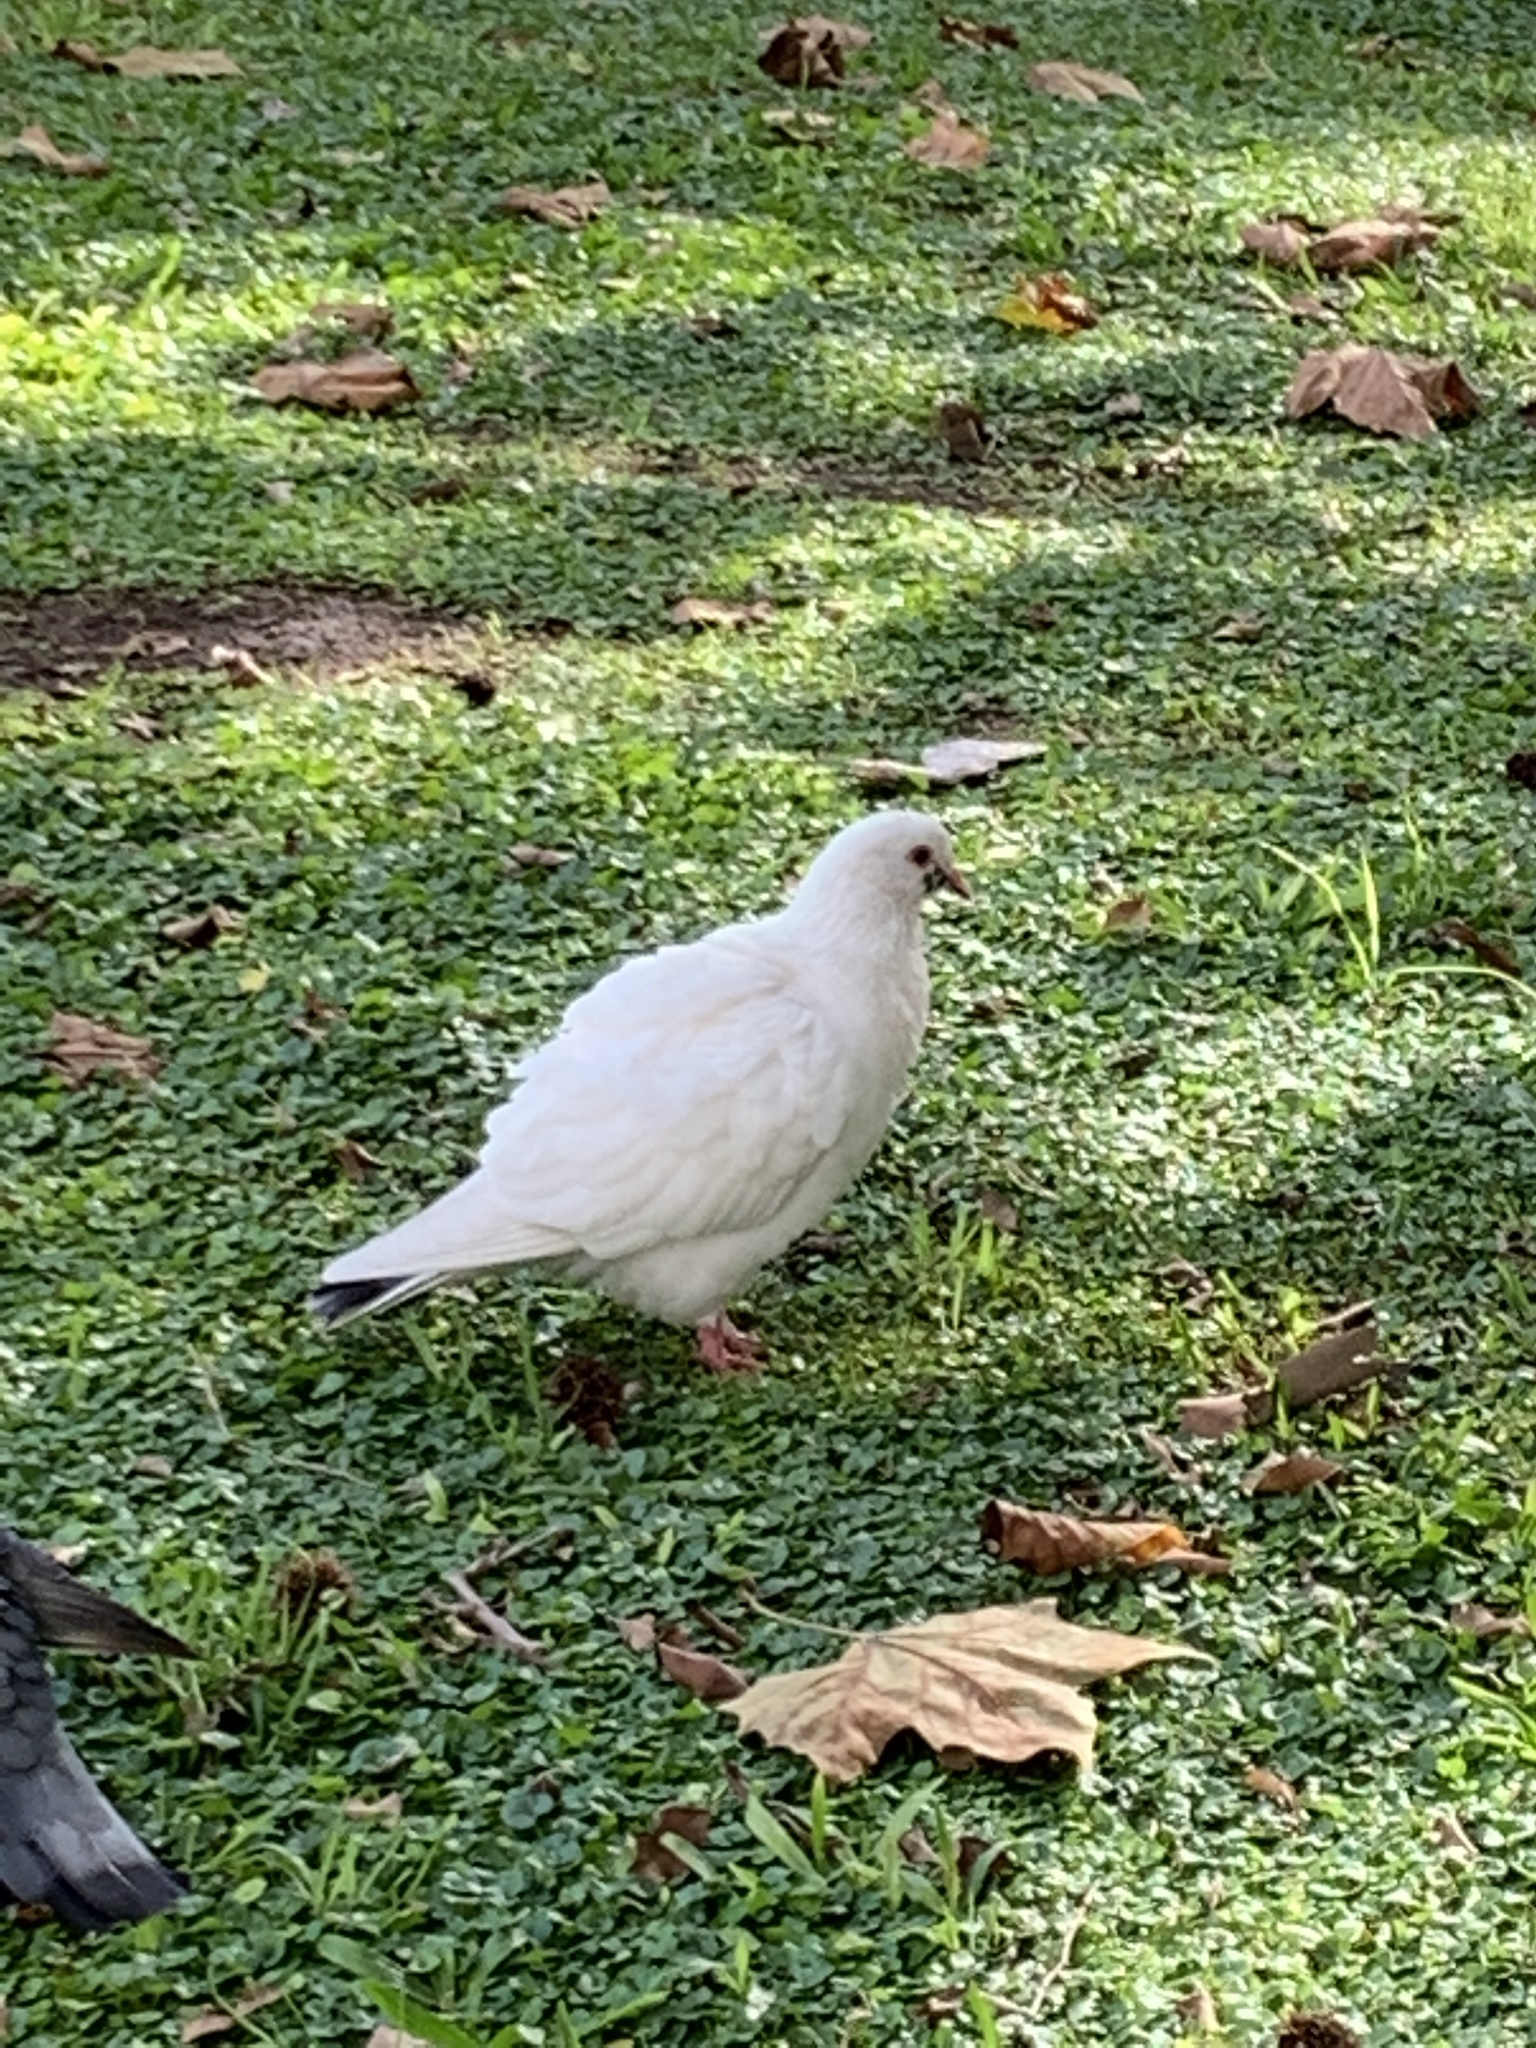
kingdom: Animalia
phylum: Chordata
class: Aves
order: Columbiformes
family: Columbidae
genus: Columba
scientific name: Columba livia
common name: Rock pigeon
